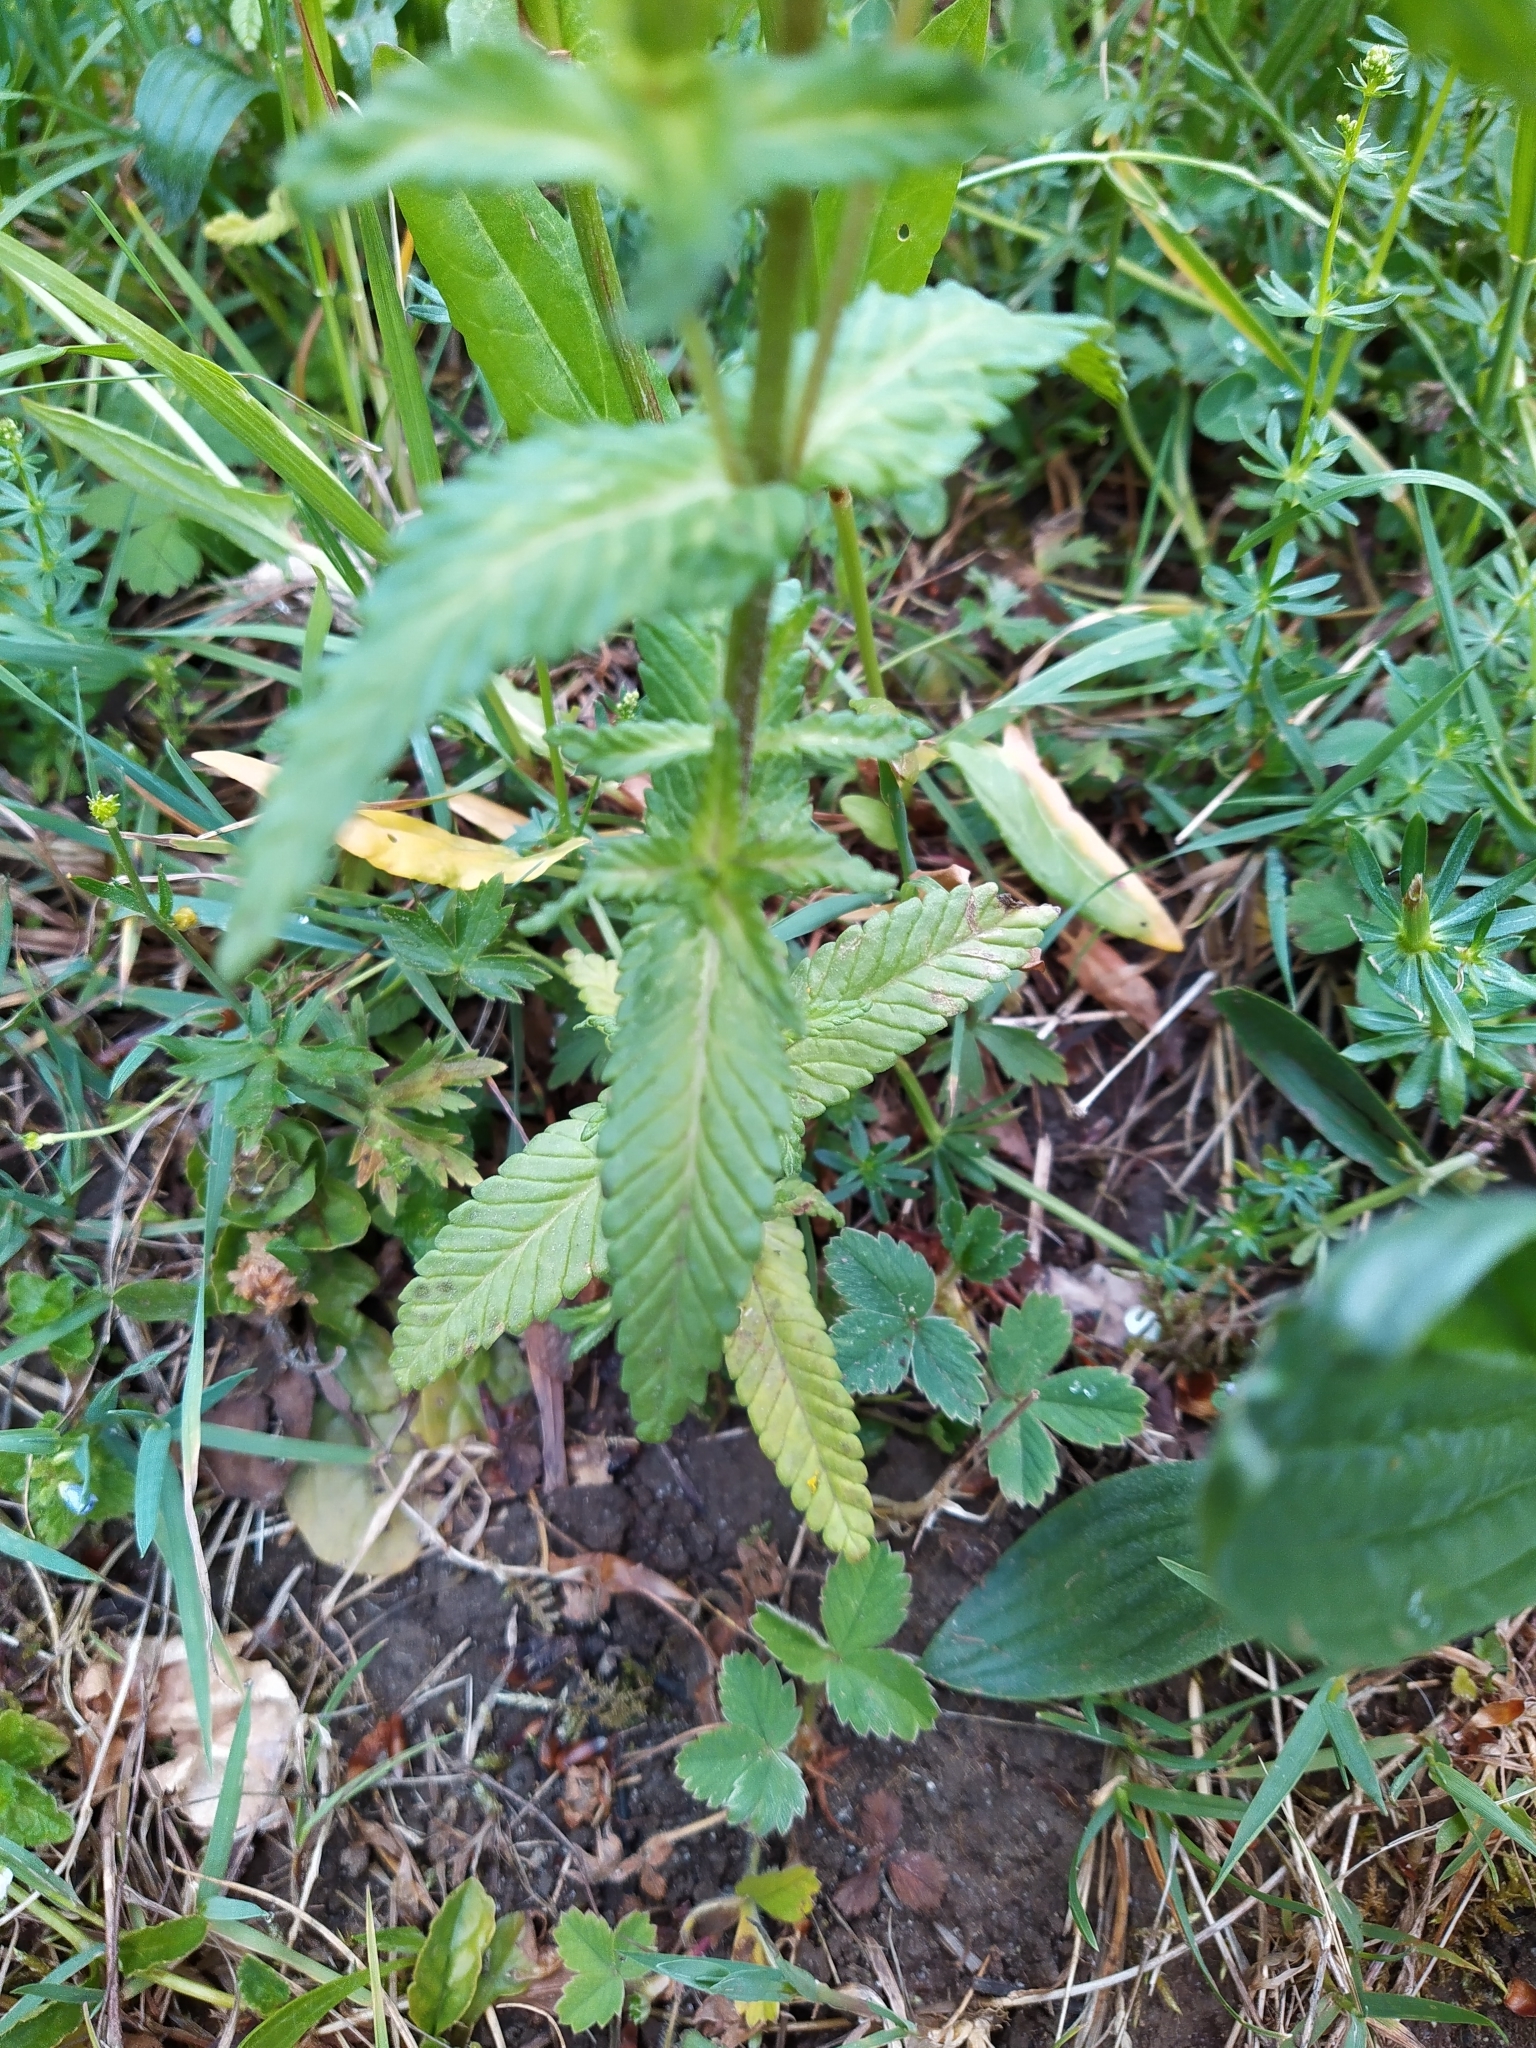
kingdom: Plantae
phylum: Tracheophyta
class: Magnoliopsida
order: Lamiales
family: Orobanchaceae
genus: Rhinanthus
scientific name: Rhinanthus alectorolophus
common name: Greater yellow-rattle
